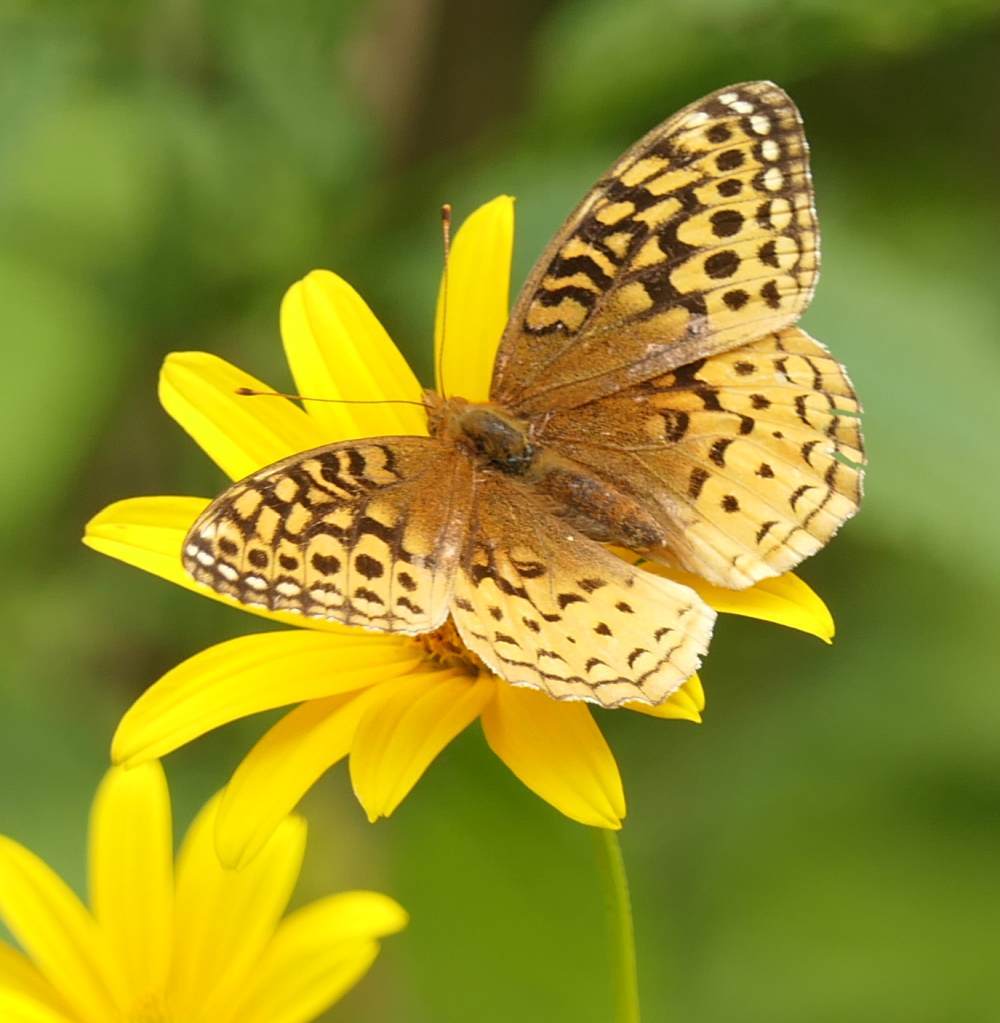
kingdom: Animalia
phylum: Arthropoda
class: Insecta
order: Lepidoptera
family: Nymphalidae
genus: Speyeria
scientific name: Speyeria cybele
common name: Great spangled fritillary
